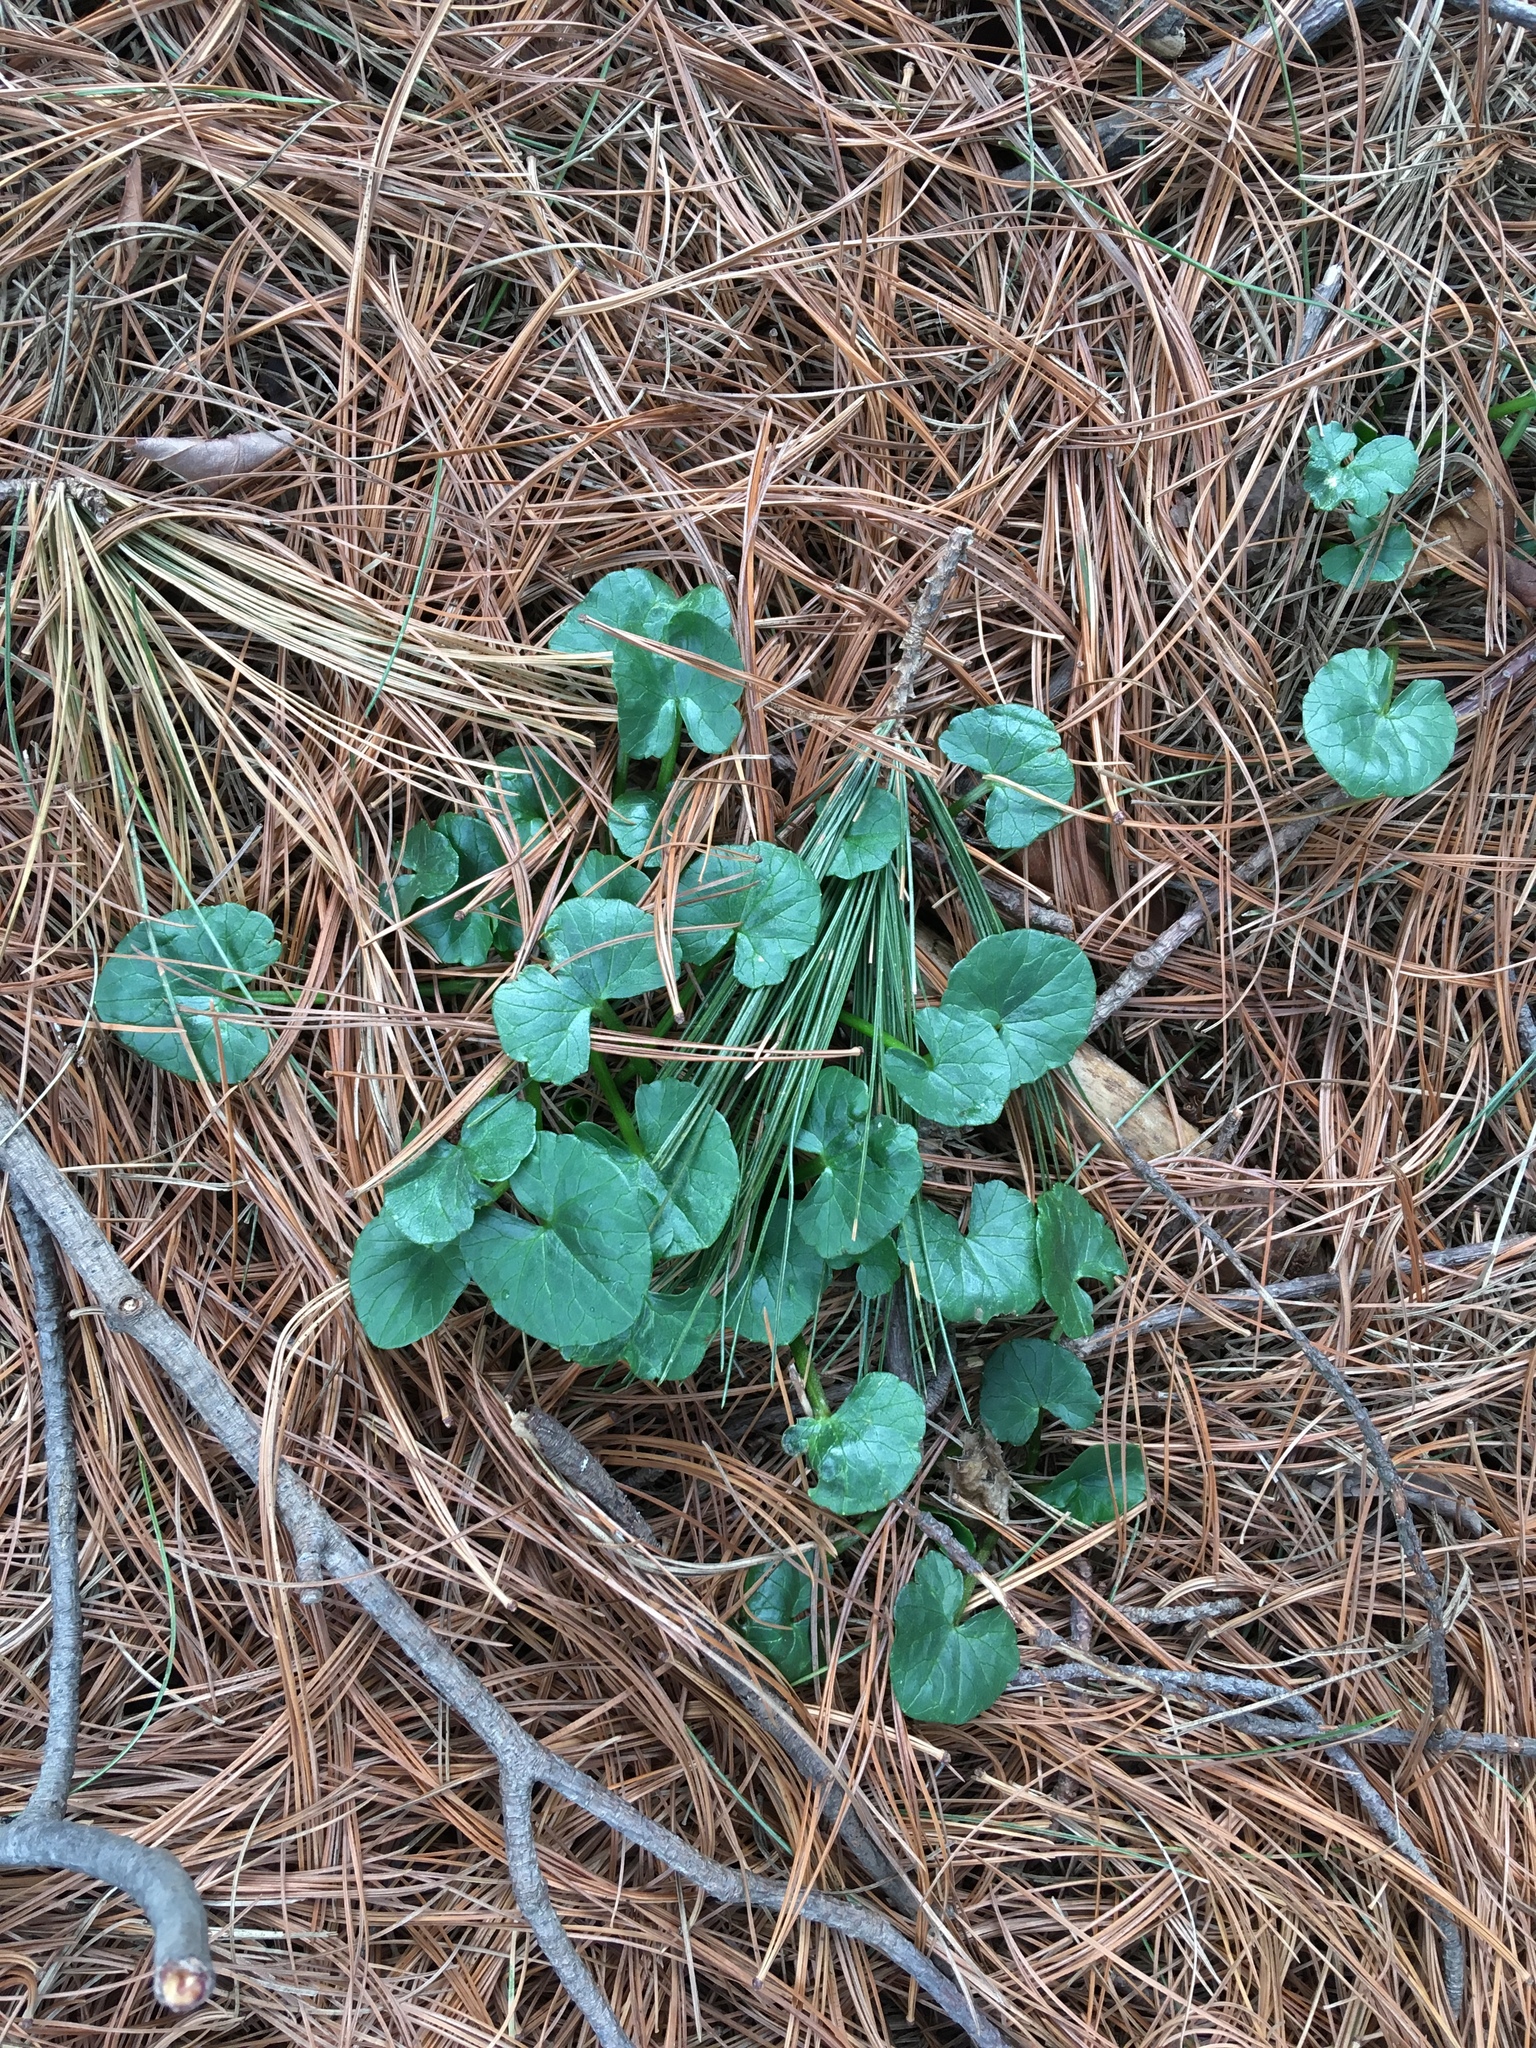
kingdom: Plantae
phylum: Tracheophyta
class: Magnoliopsida
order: Ranunculales
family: Ranunculaceae
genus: Ficaria
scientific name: Ficaria verna
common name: Lesser celandine
